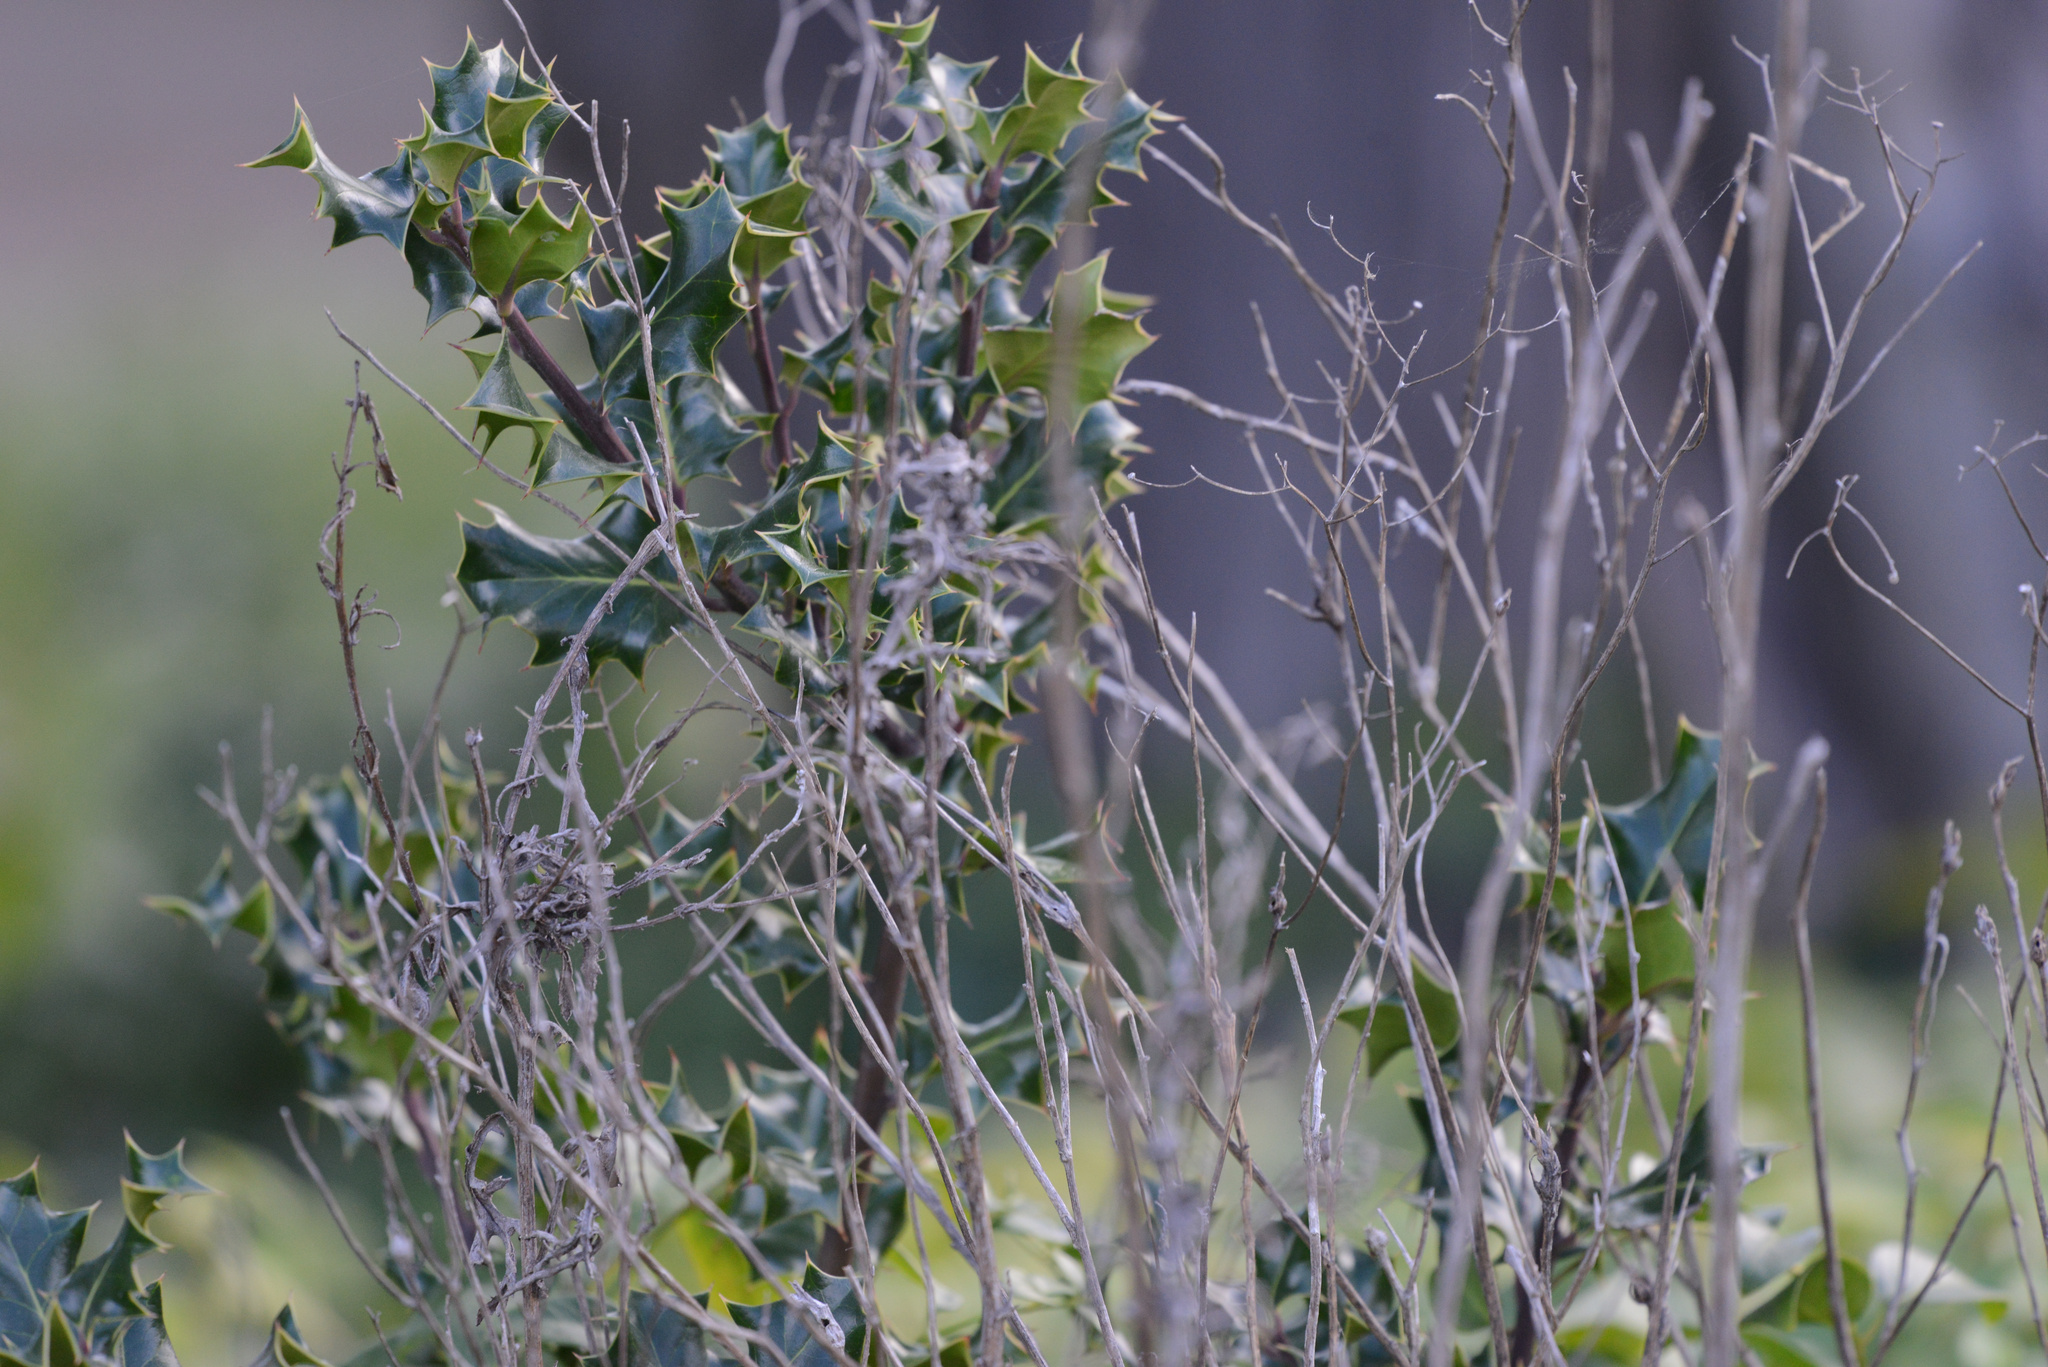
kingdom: Plantae
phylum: Tracheophyta
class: Magnoliopsida
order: Aquifoliales
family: Aquifoliaceae
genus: Ilex
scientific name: Ilex aquifolium
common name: English holly
